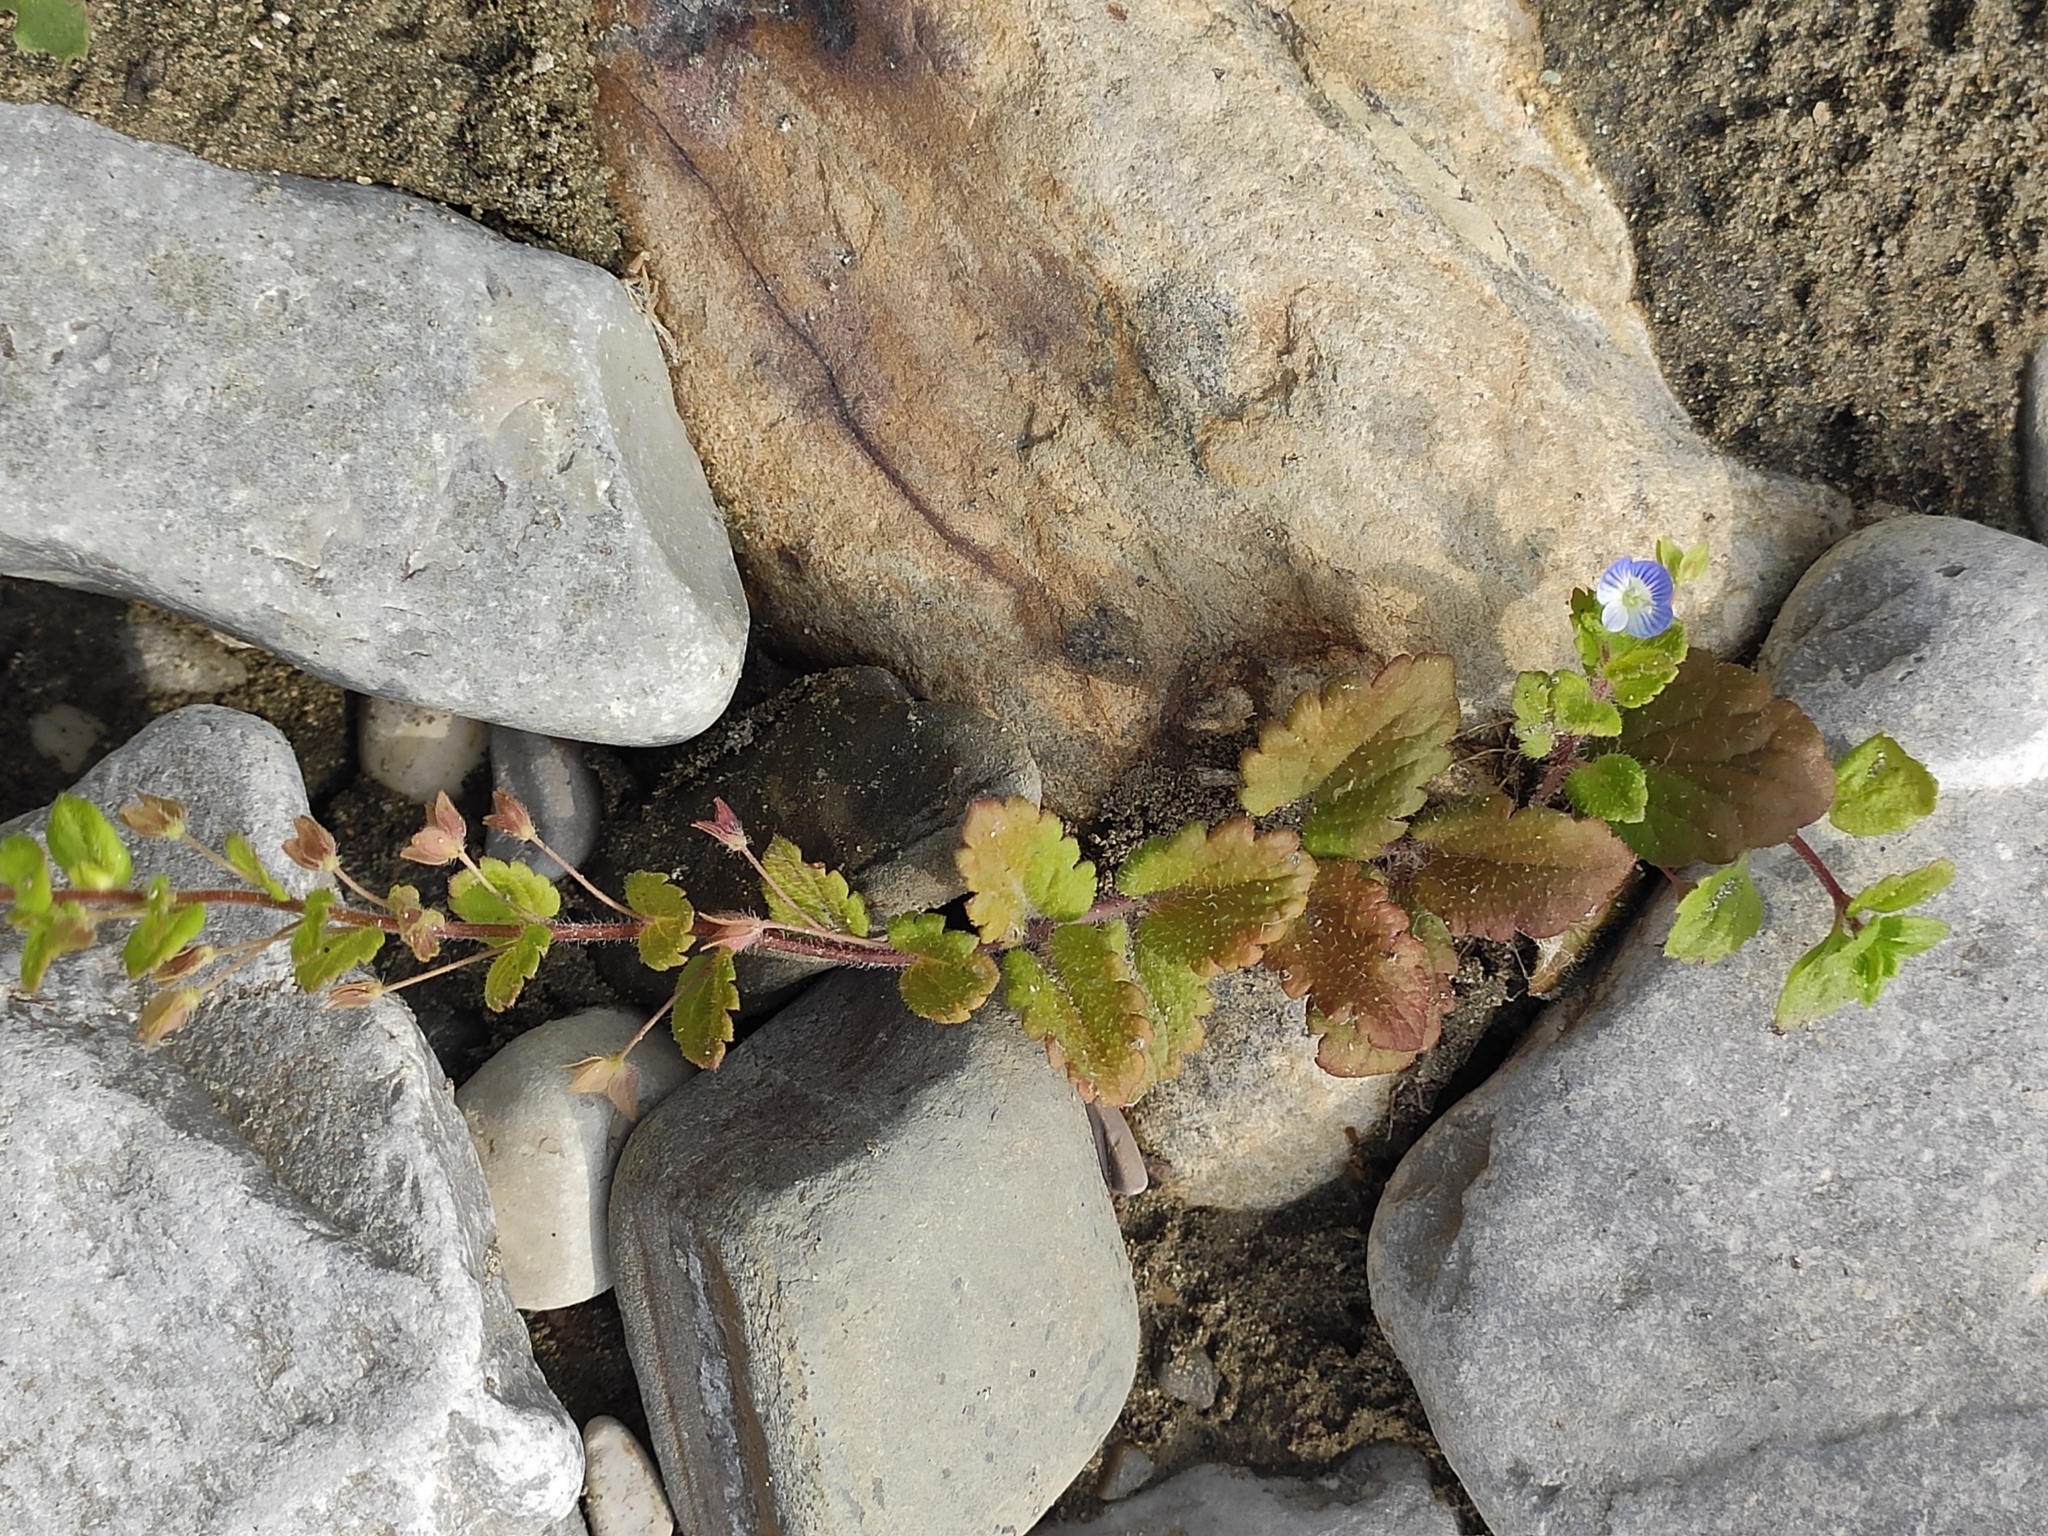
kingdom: Plantae
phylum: Tracheophyta
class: Magnoliopsida
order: Lamiales
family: Plantaginaceae
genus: Veronica
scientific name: Veronica persica
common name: Common field-speedwell
